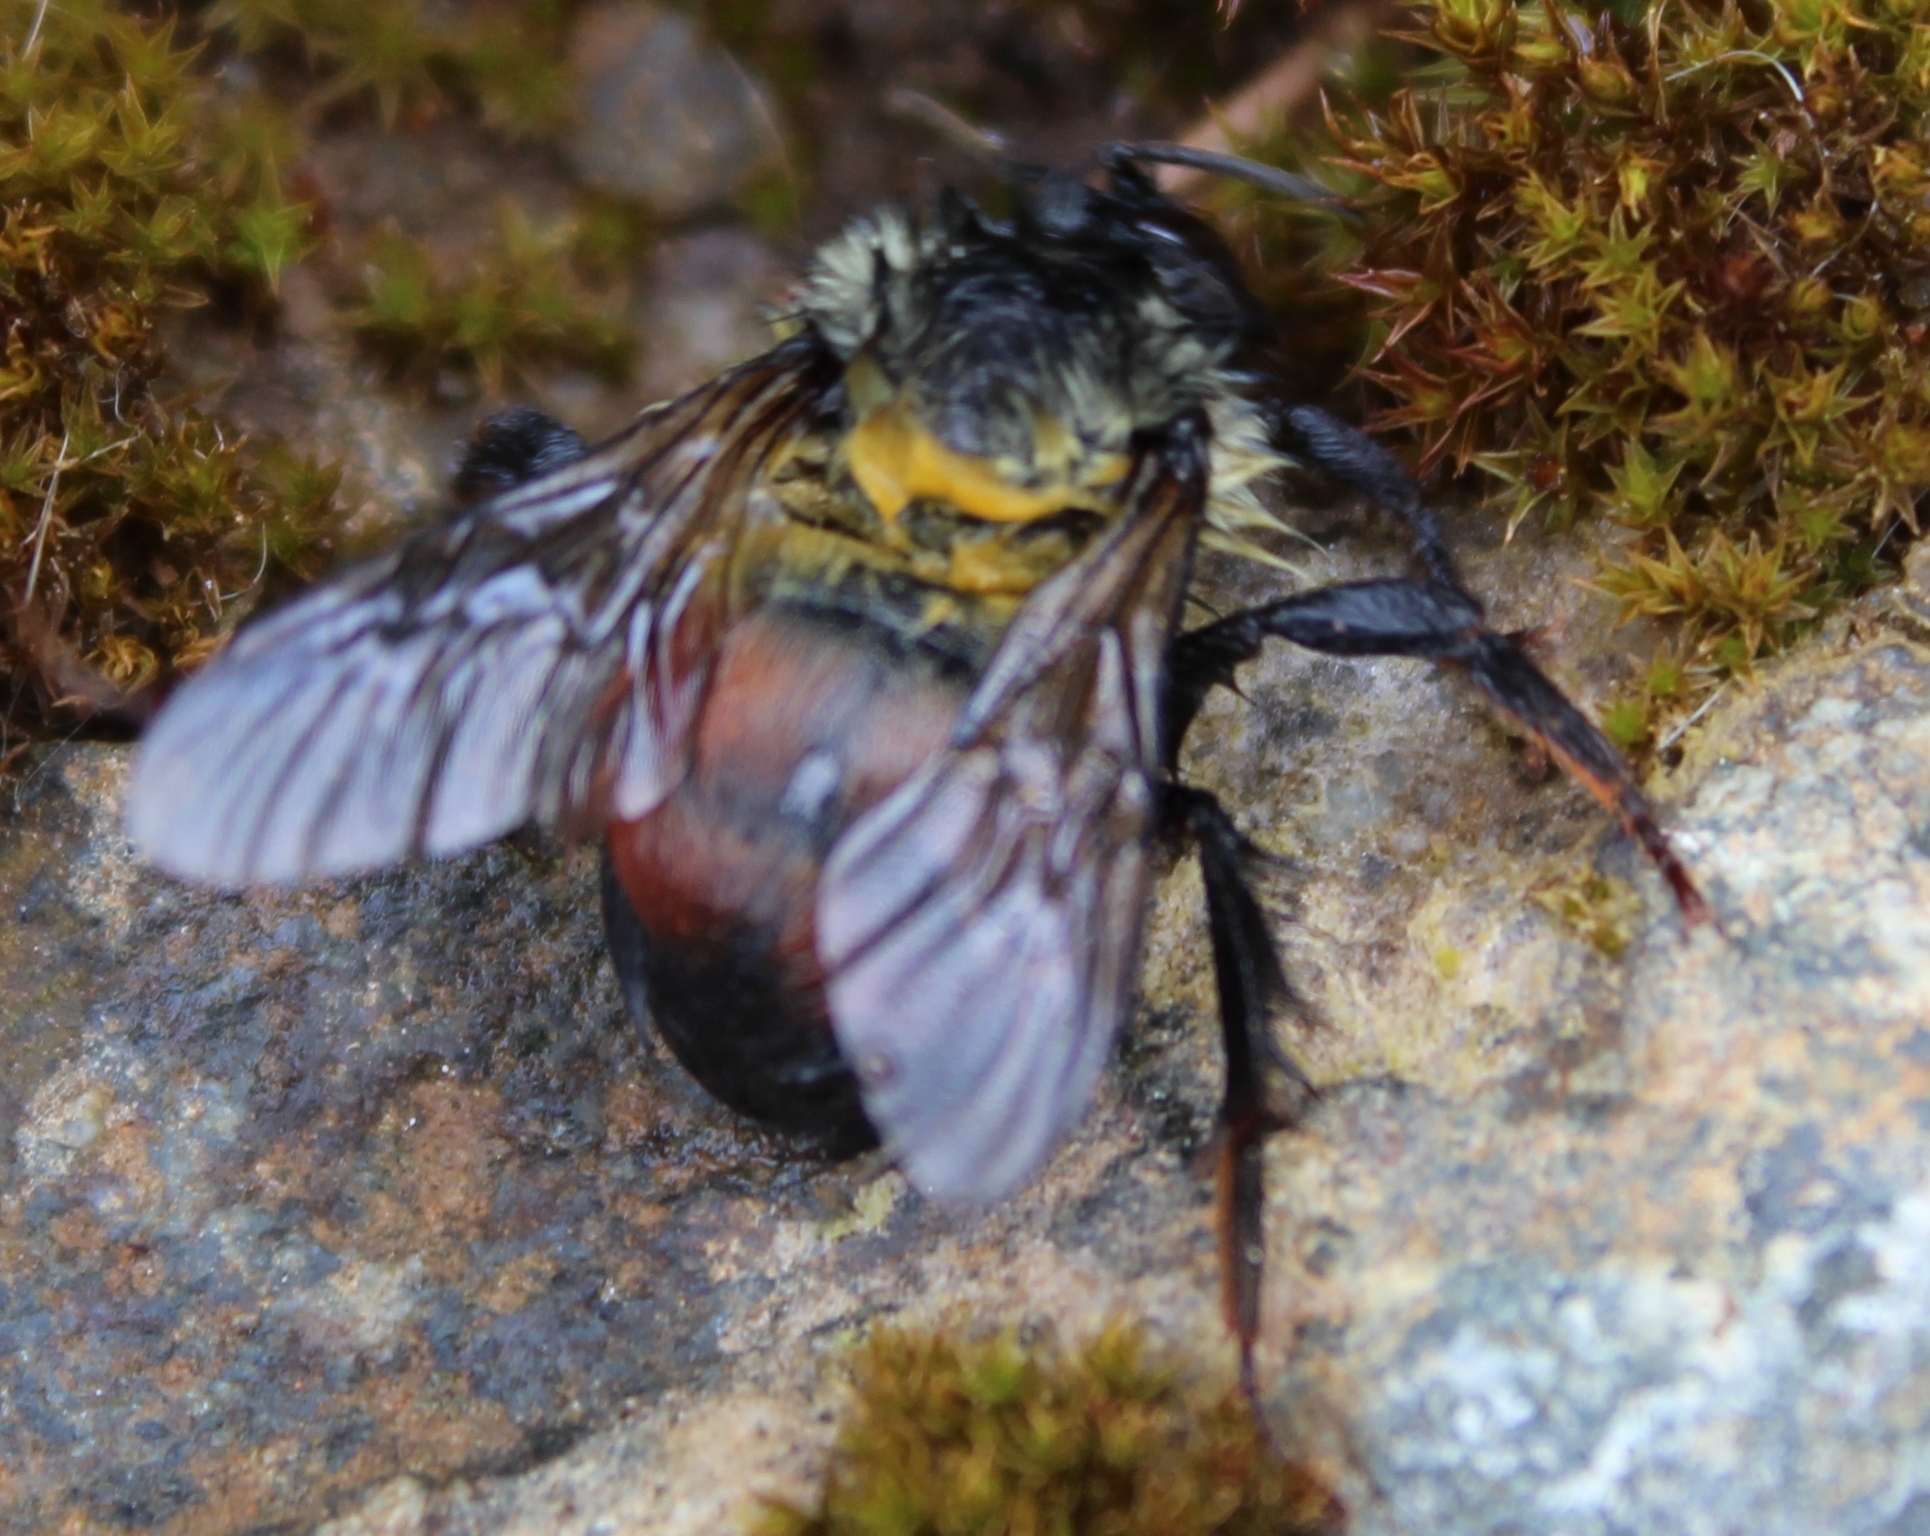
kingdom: Animalia
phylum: Arthropoda
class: Insecta
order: Hymenoptera
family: Apidae
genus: Bombus
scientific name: Bombus melanopygus
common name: Black tail bumble bee
